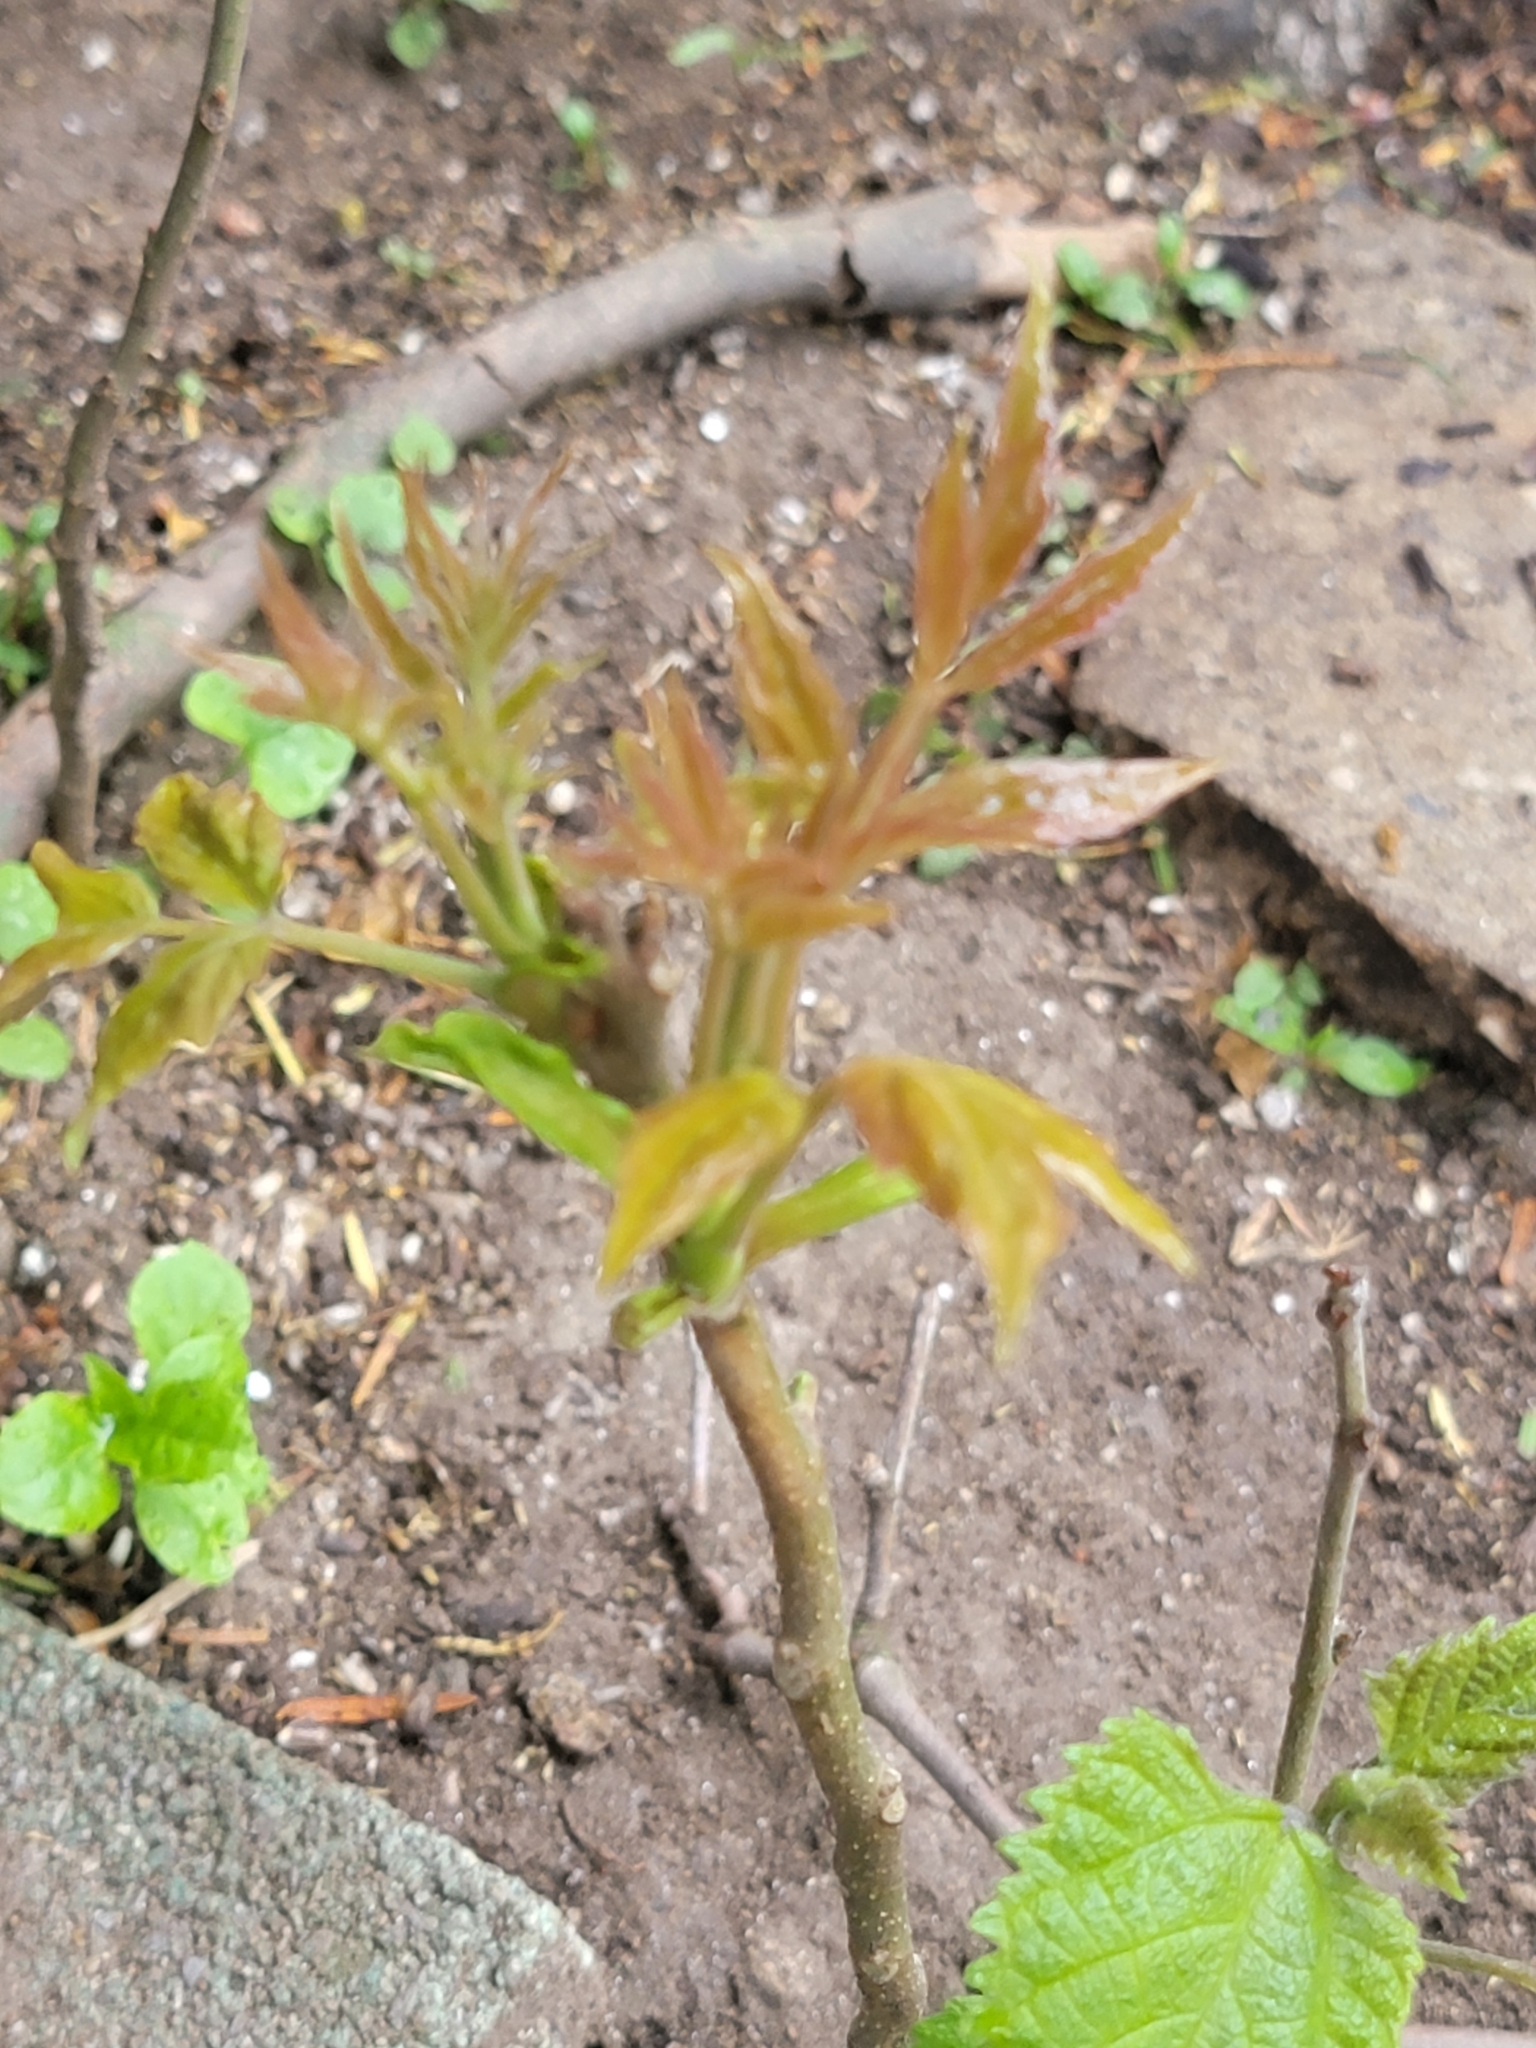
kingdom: Plantae
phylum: Tracheophyta
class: Magnoliopsida
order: Sapindales
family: Simaroubaceae
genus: Ailanthus
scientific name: Ailanthus altissima
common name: Tree-of-heaven
